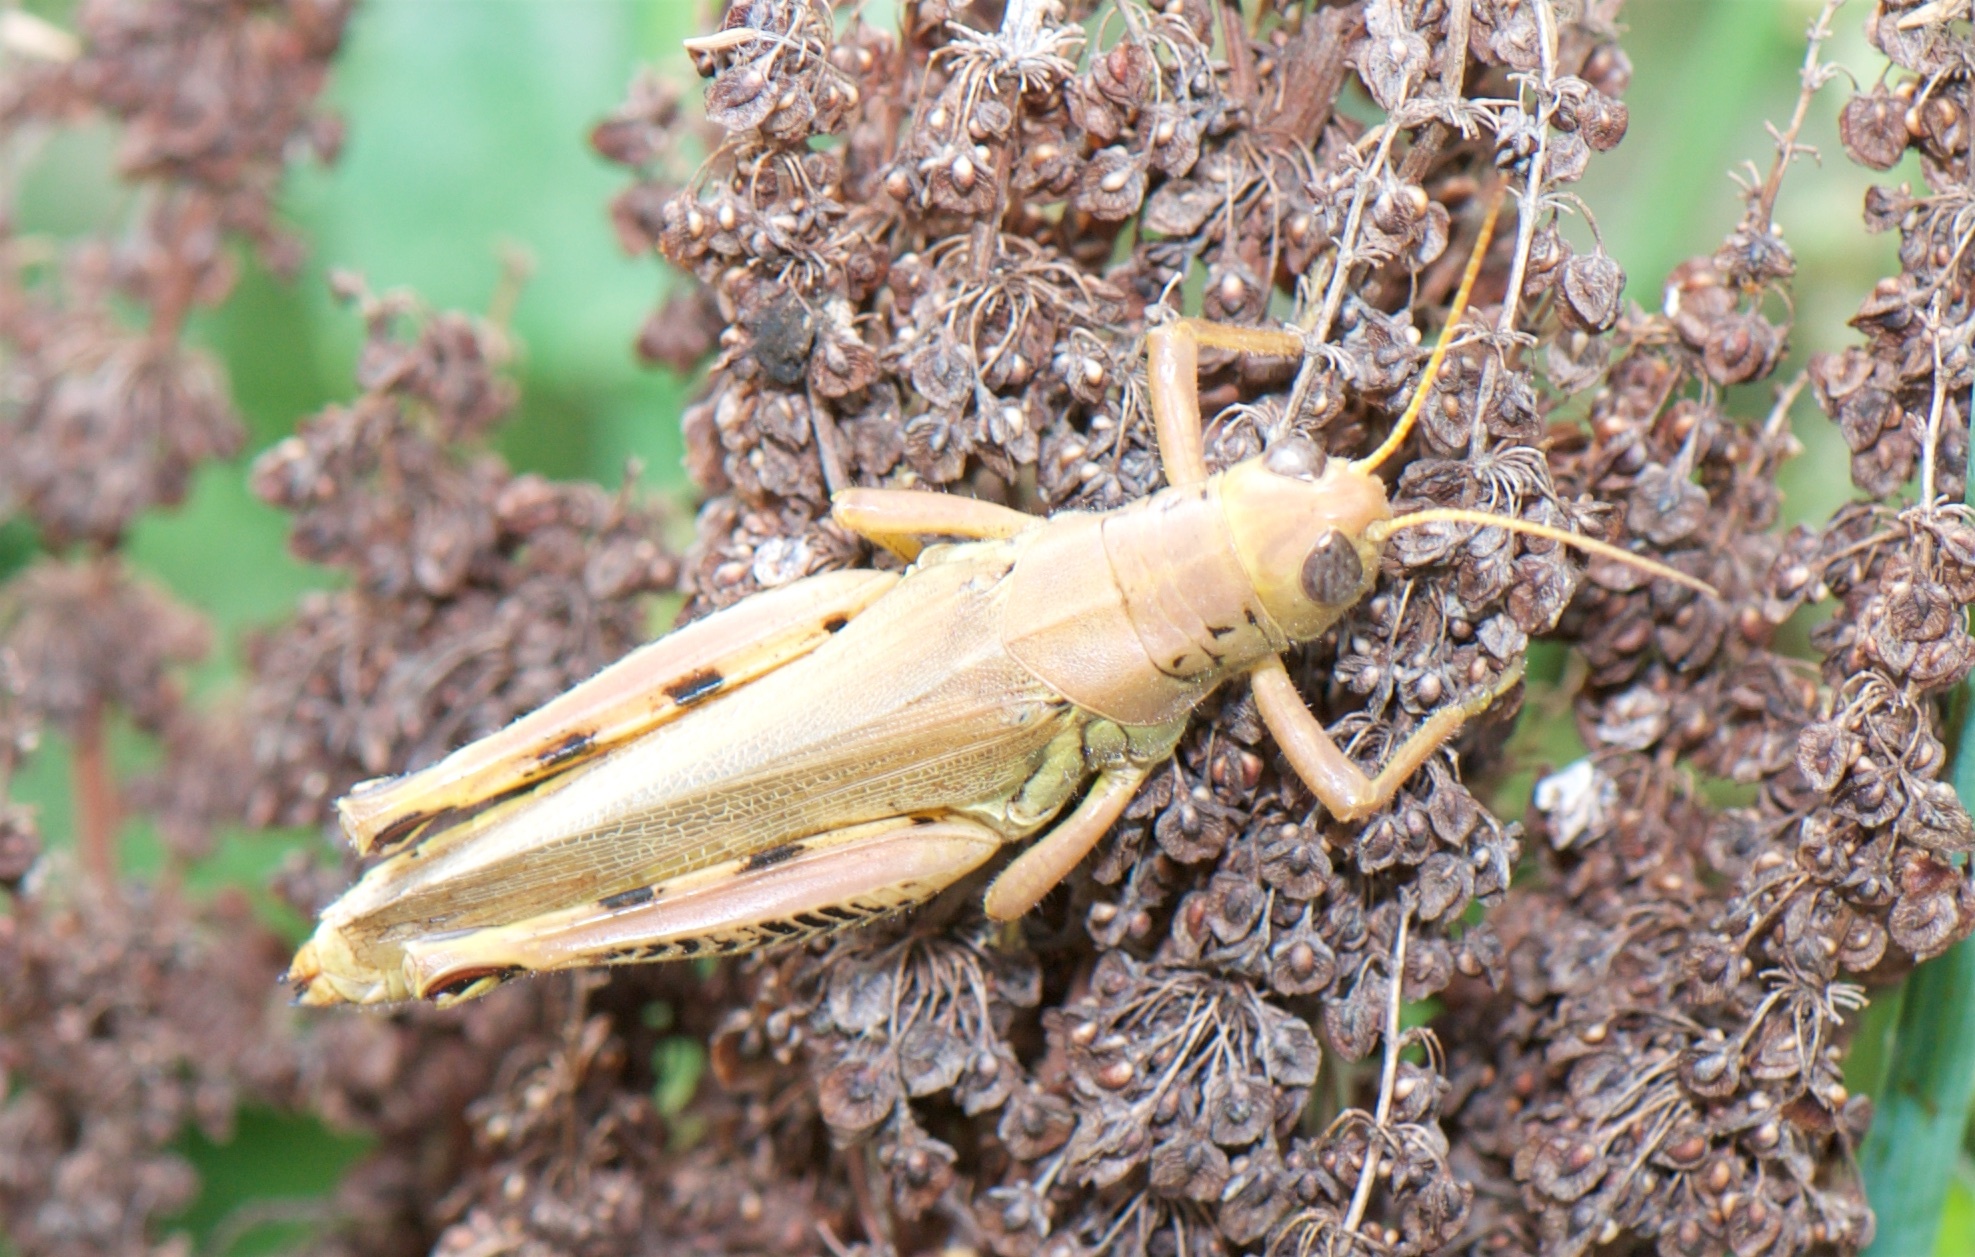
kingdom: Animalia
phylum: Arthropoda
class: Insecta
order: Orthoptera
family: Acrididae
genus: Melanoplus
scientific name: Melanoplus differentialis
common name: Differential grasshopper
